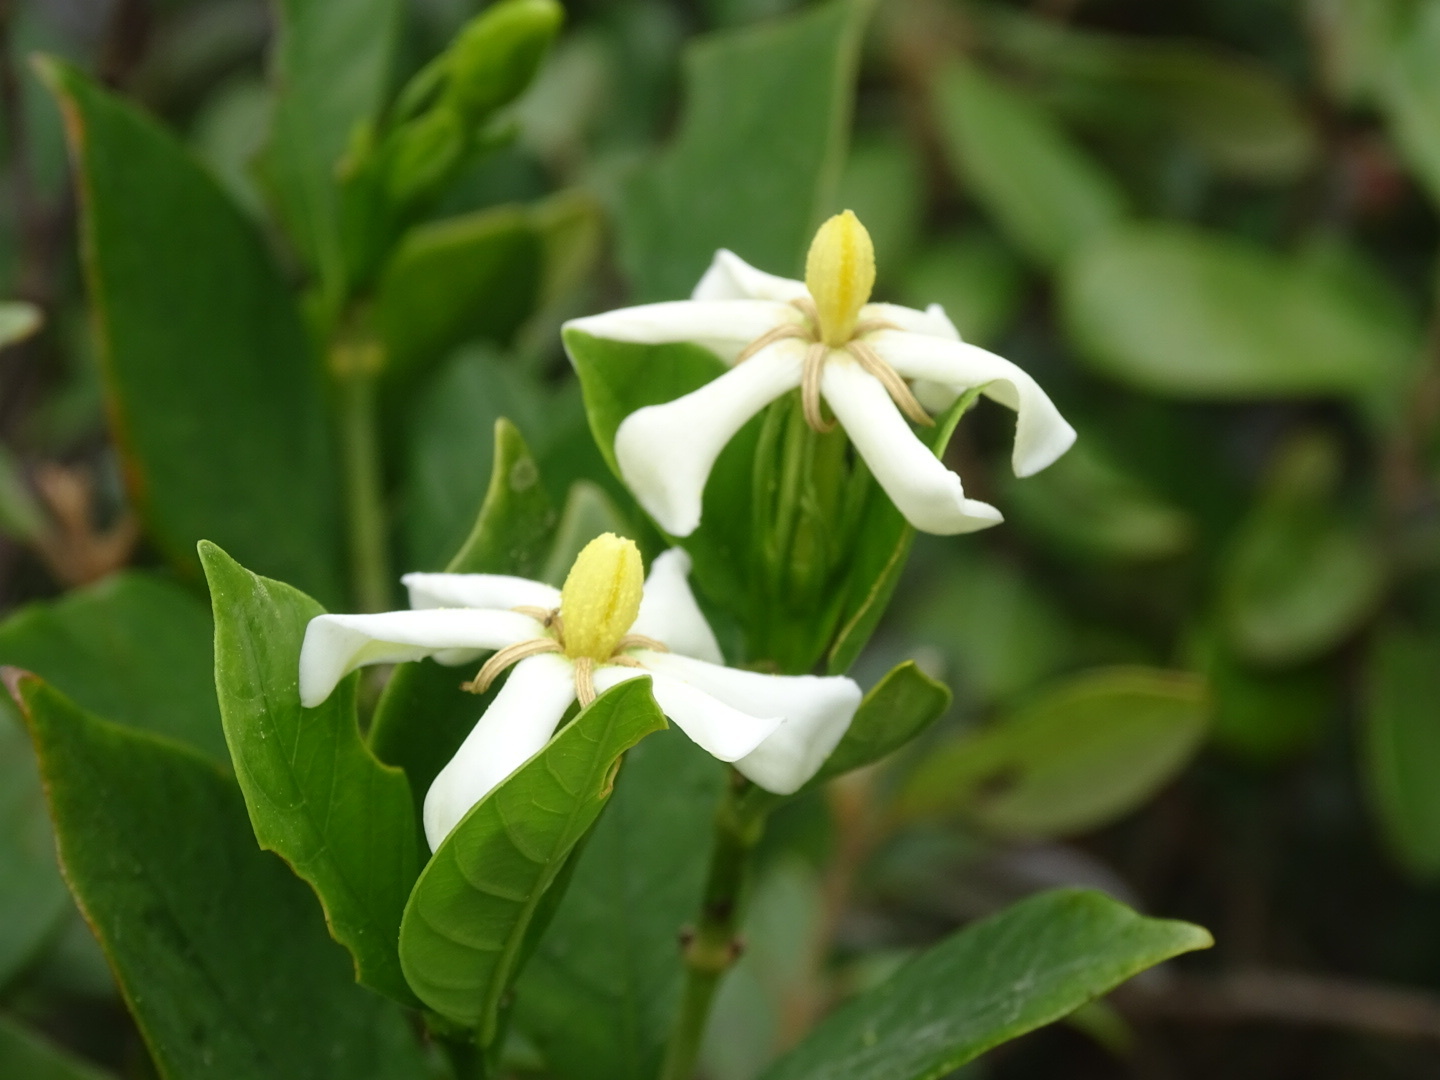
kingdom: Plantae
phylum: Tracheophyta
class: Magnoliopsida
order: Gentianales
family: Rubiaceae
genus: Gardenia
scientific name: Gardenia jasminoides
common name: Cape-jasmine
